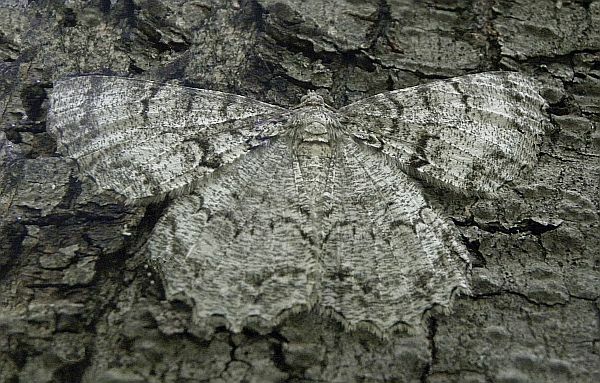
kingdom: Animalia
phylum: Arthropoda
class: Insecta
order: Lepidoptera
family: Geometridae
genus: Epimecis
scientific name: Epimecis hortaria
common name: Tulip-tree beauty
